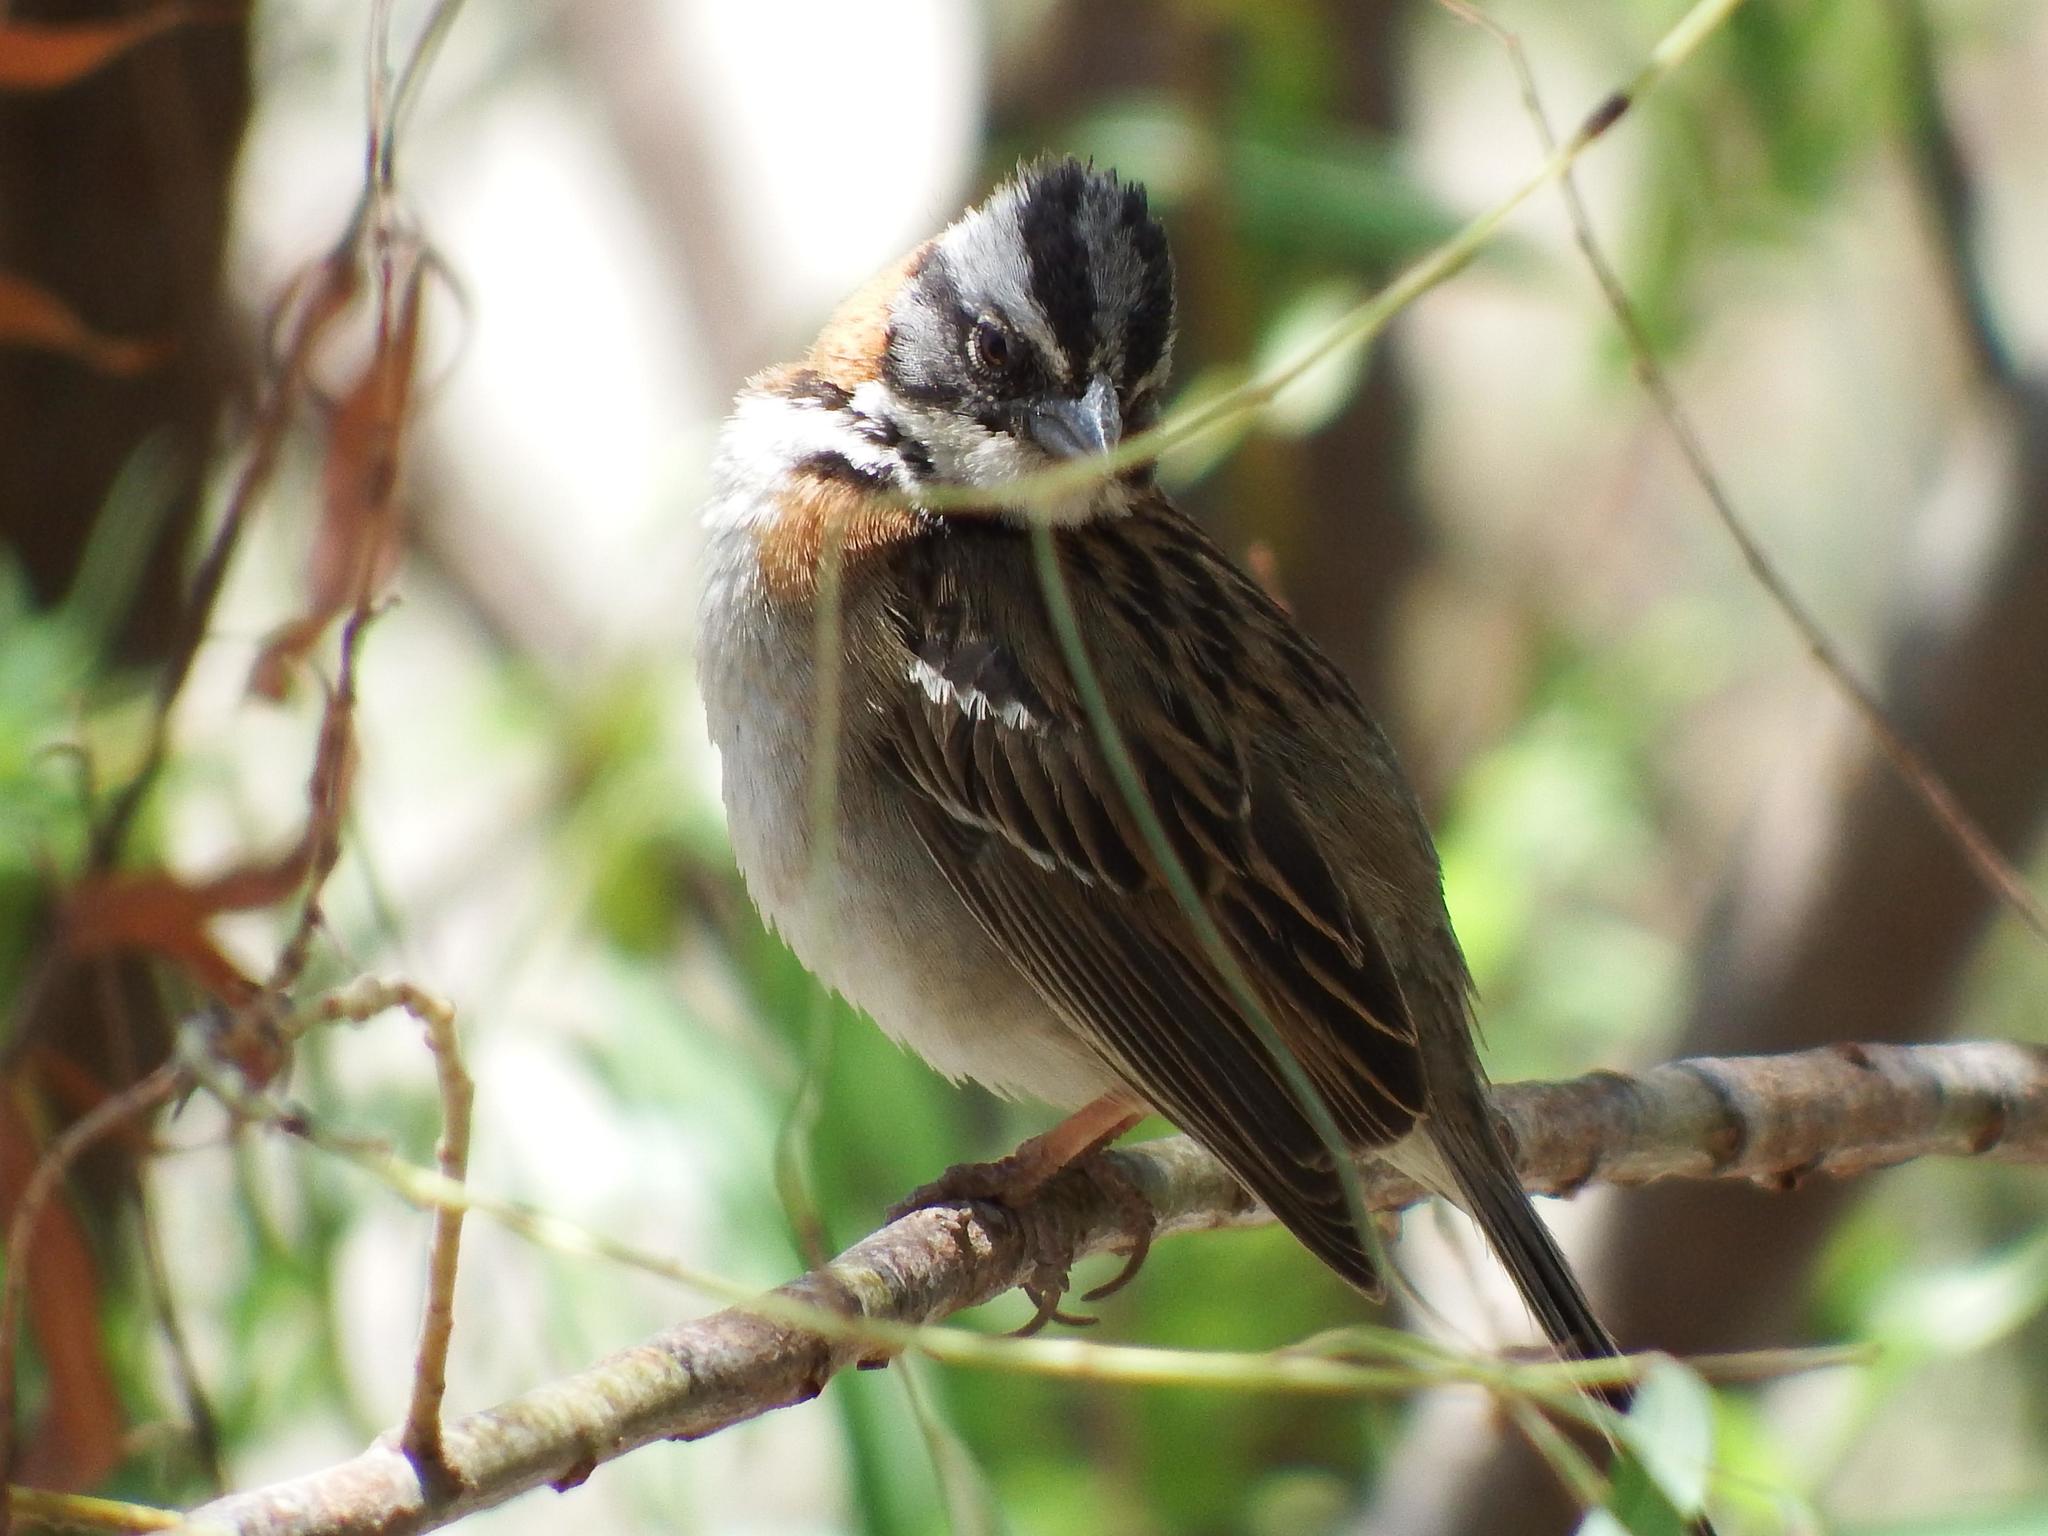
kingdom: Animalia
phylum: Chordata
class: Aves
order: Passeriformes
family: Passerellidae
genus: Zonotrichia
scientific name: Zonotrichia capensis
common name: Rufous-collared sparrow
